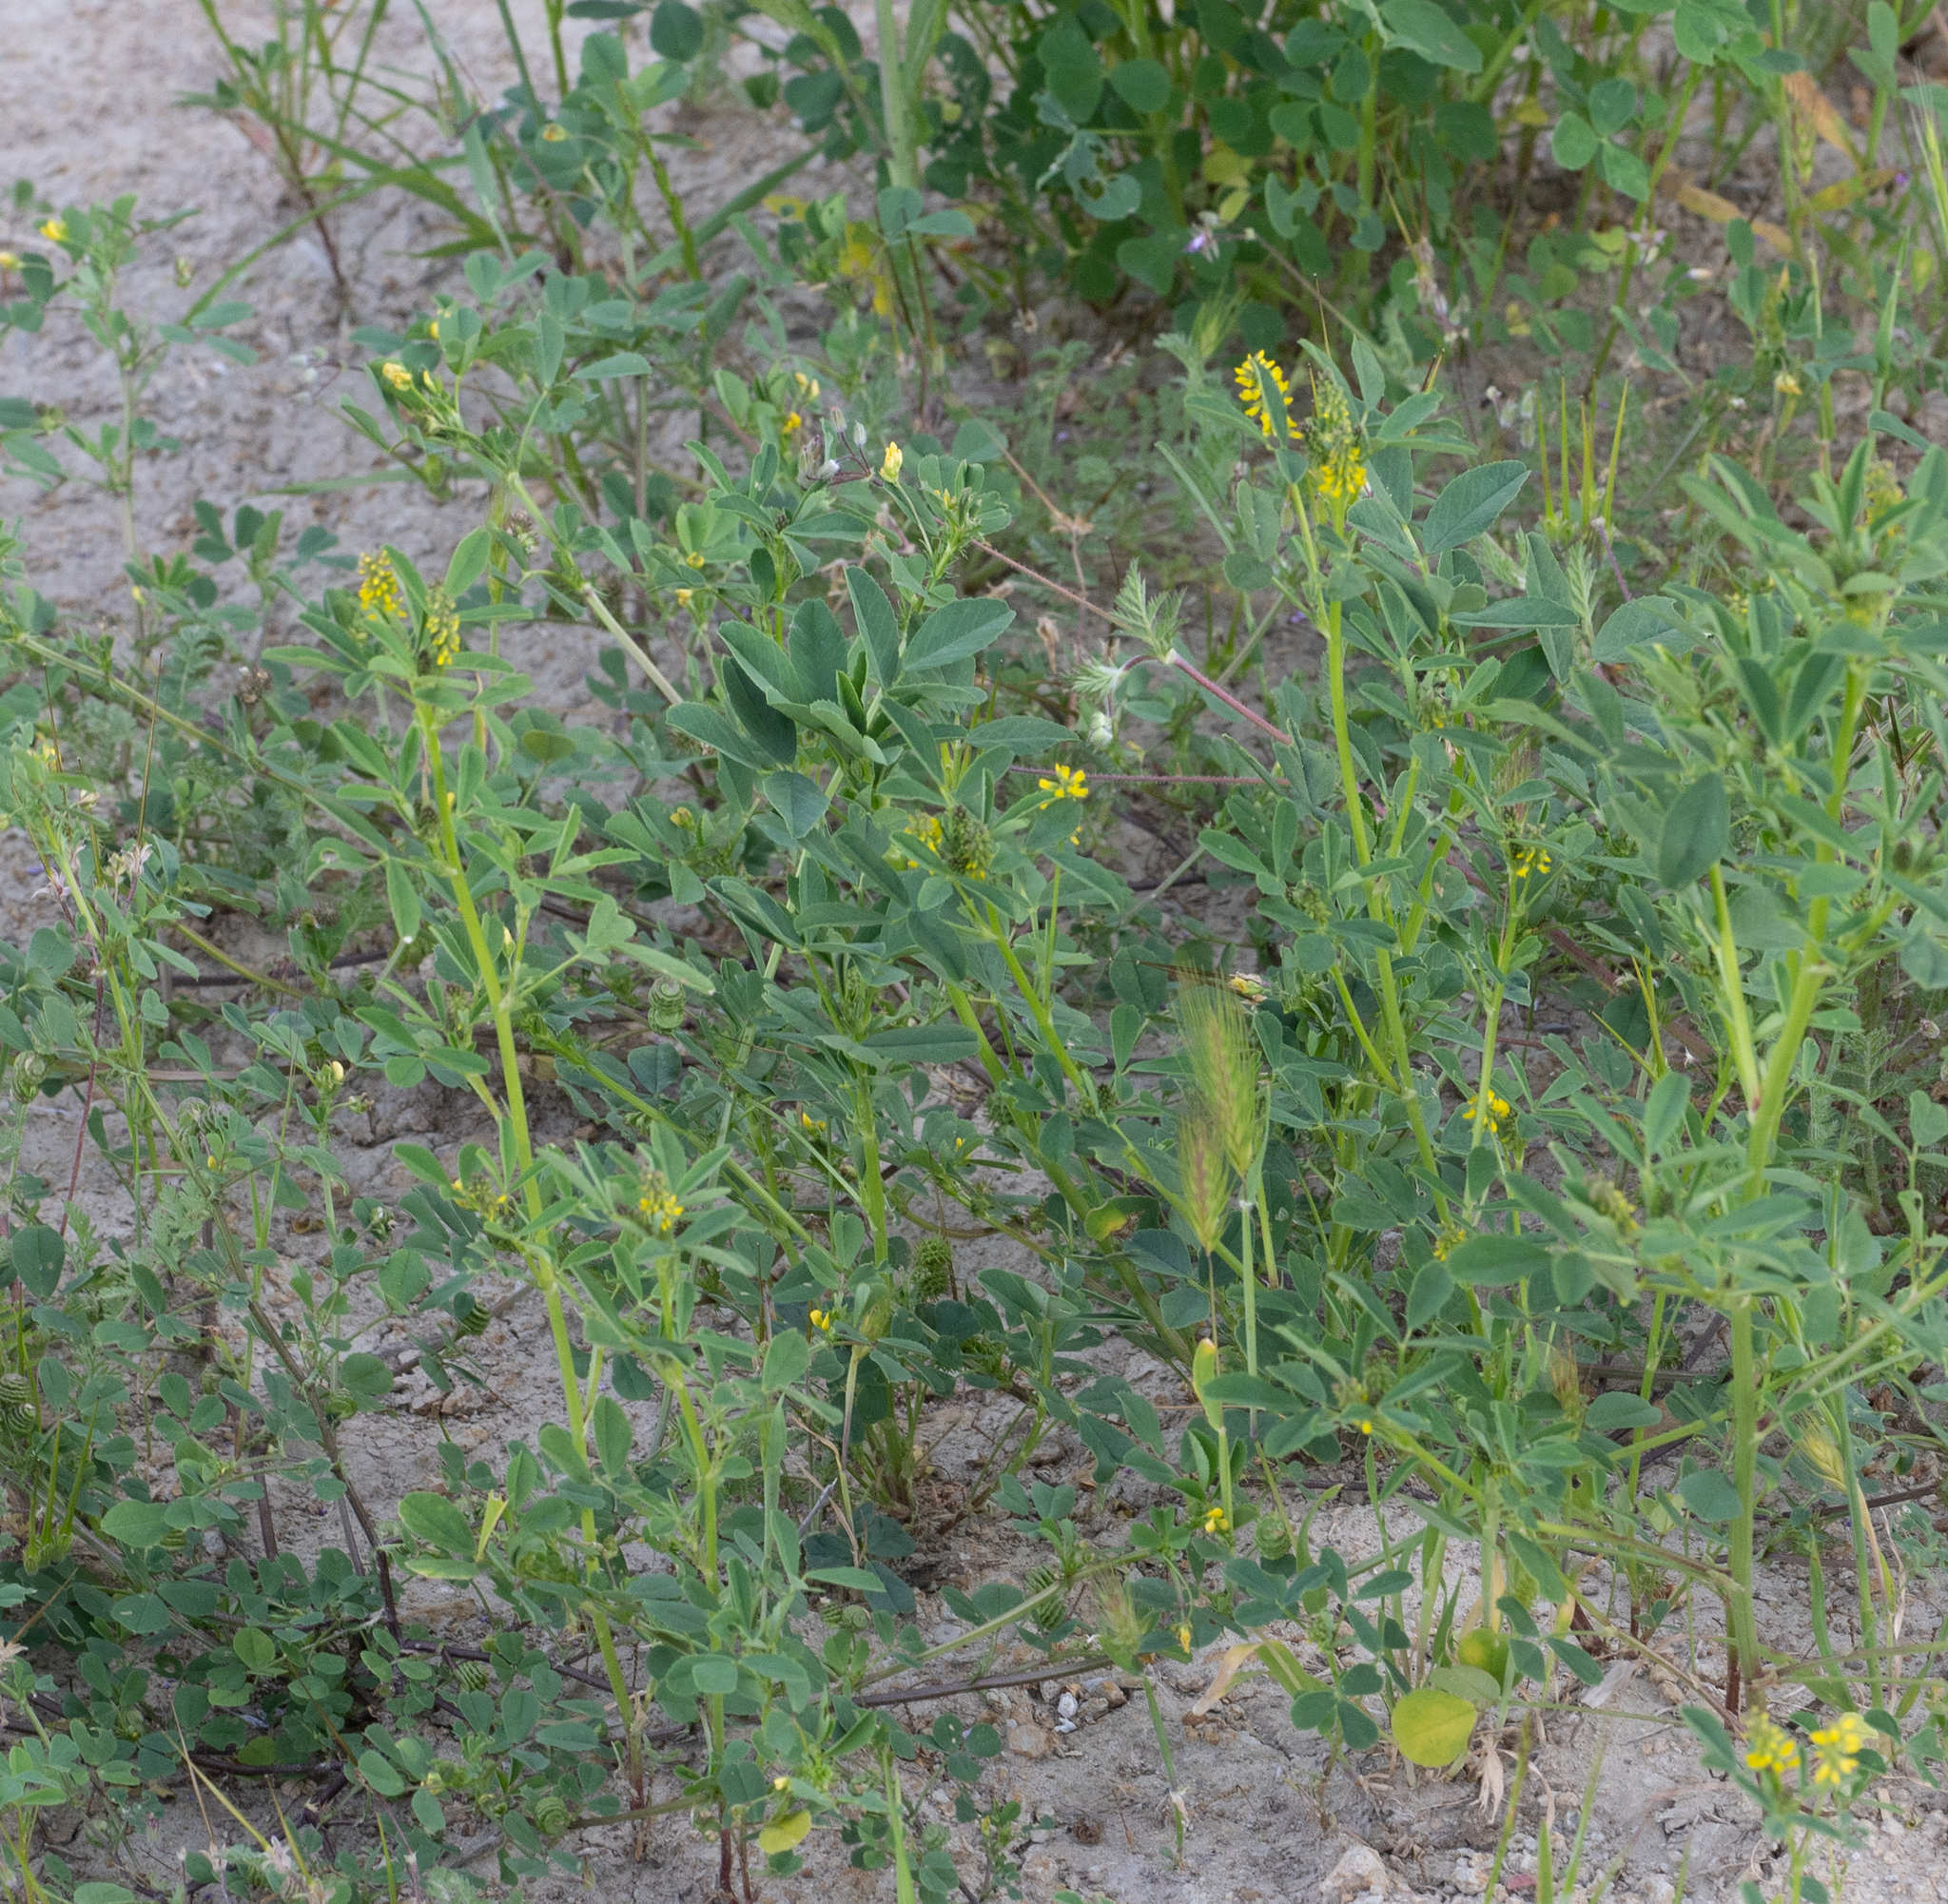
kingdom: Plantae
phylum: Tracheophyta
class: Magnoliopsida
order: Fabales
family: Fabaceae
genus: Melilotus
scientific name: Melilotus indicus
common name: Small melilot
